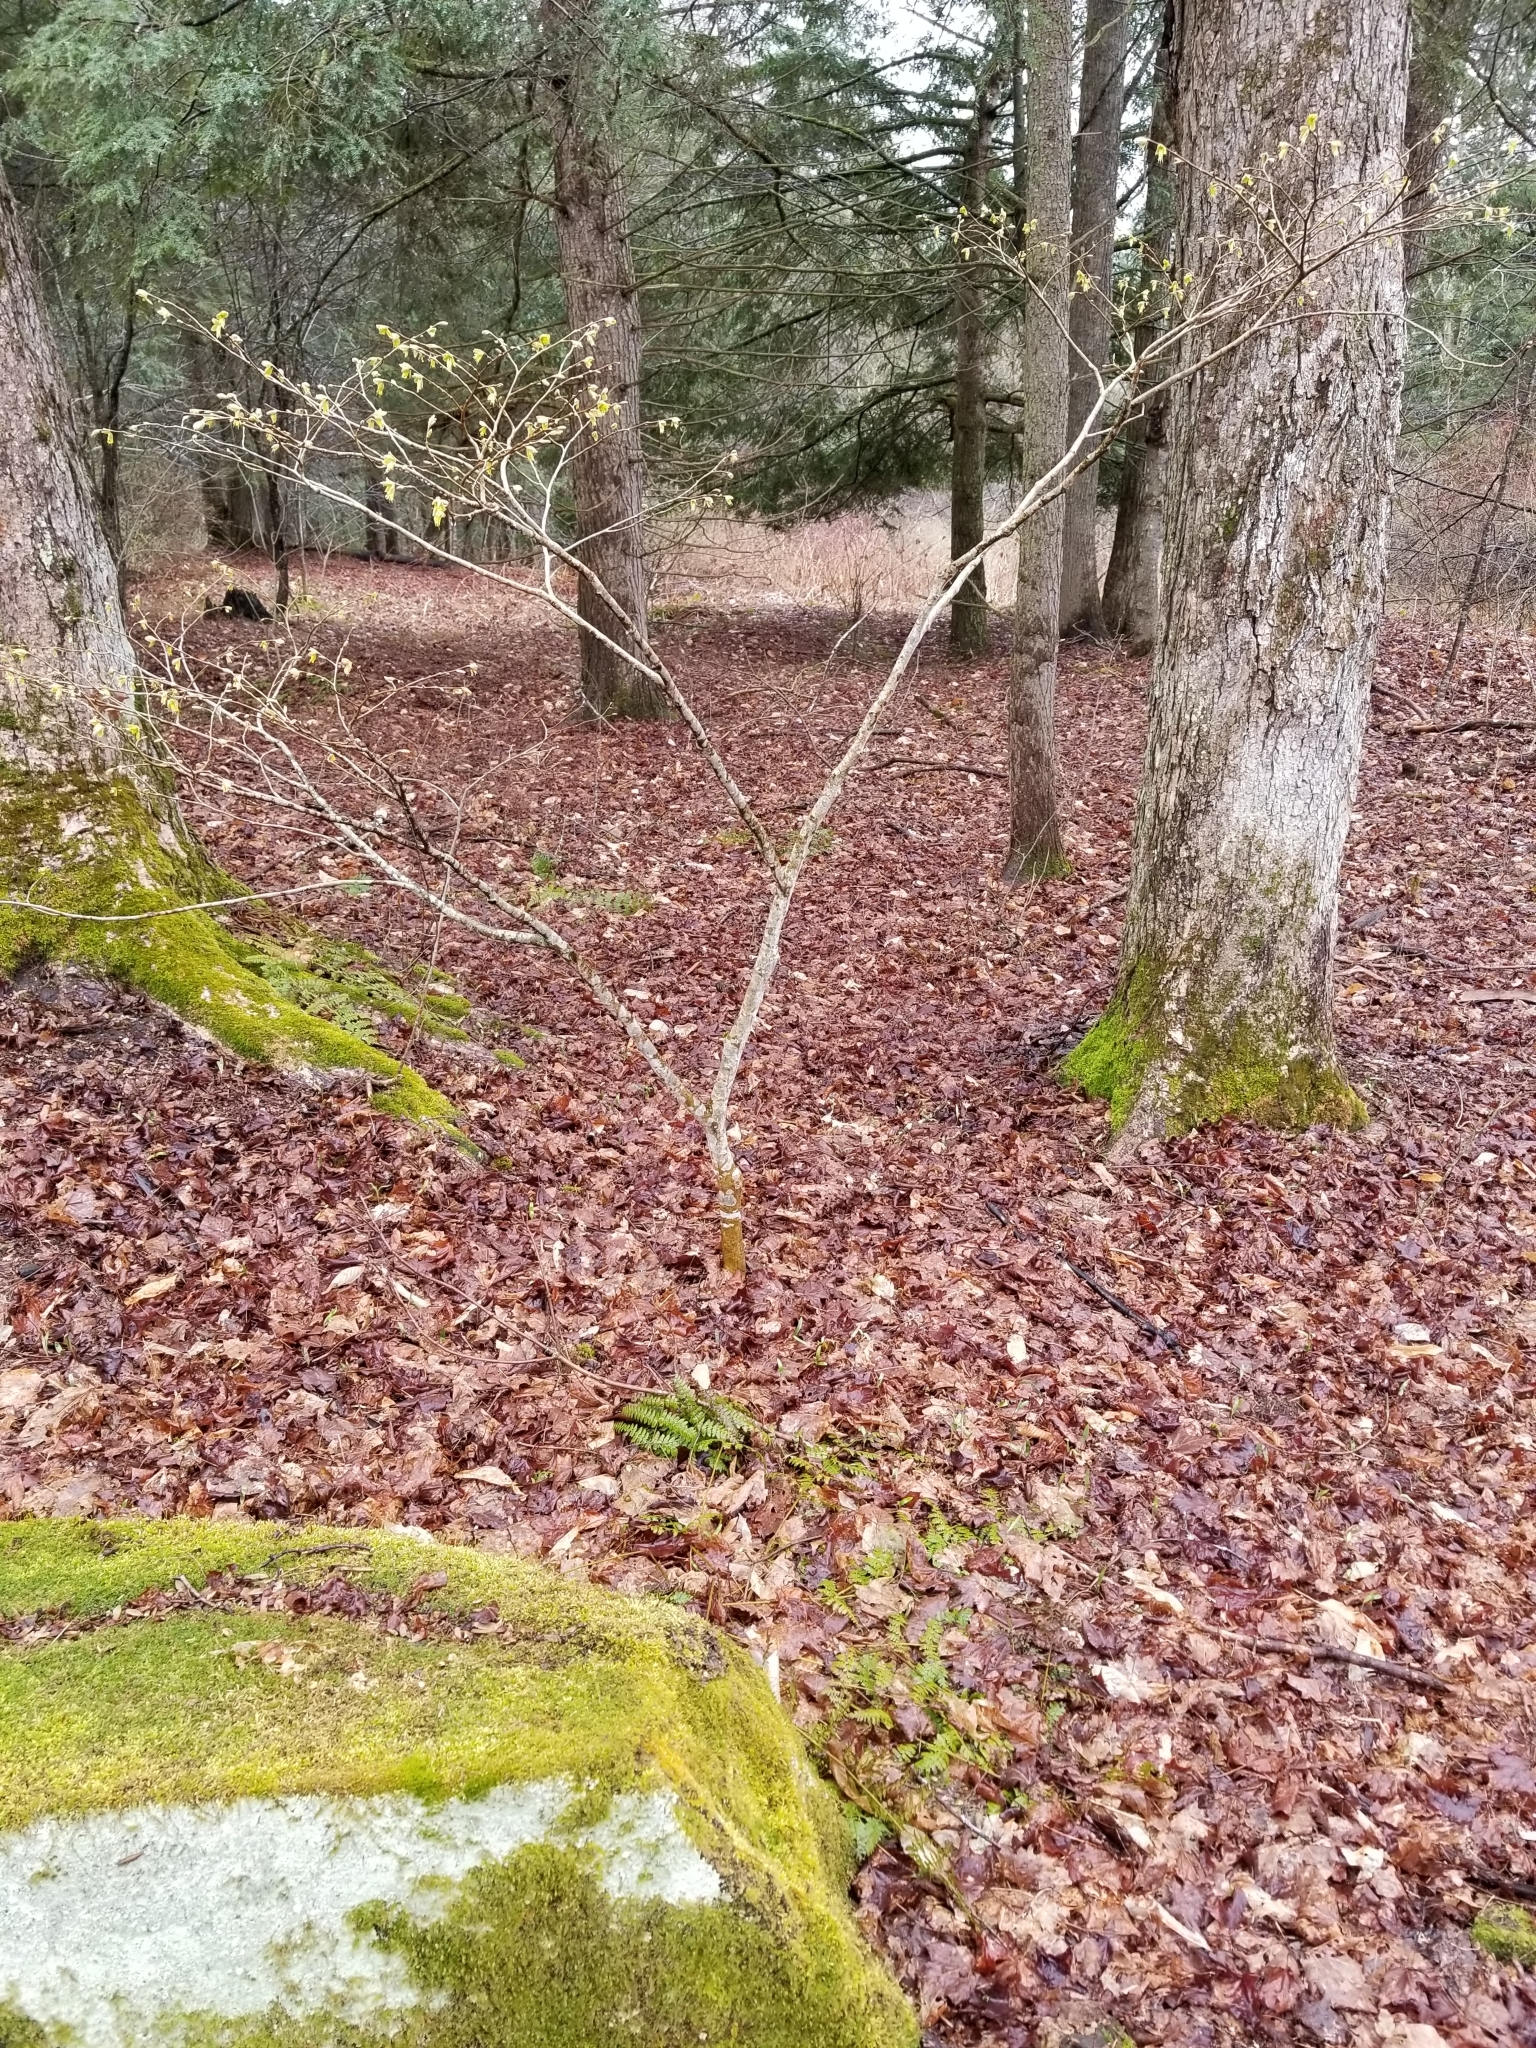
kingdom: Plantae
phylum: Tracheophyta
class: Magnoliopsida
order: Malvales
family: Thymelaeaceae
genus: Dirca
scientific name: Dirca palustris
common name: Leatherwood
